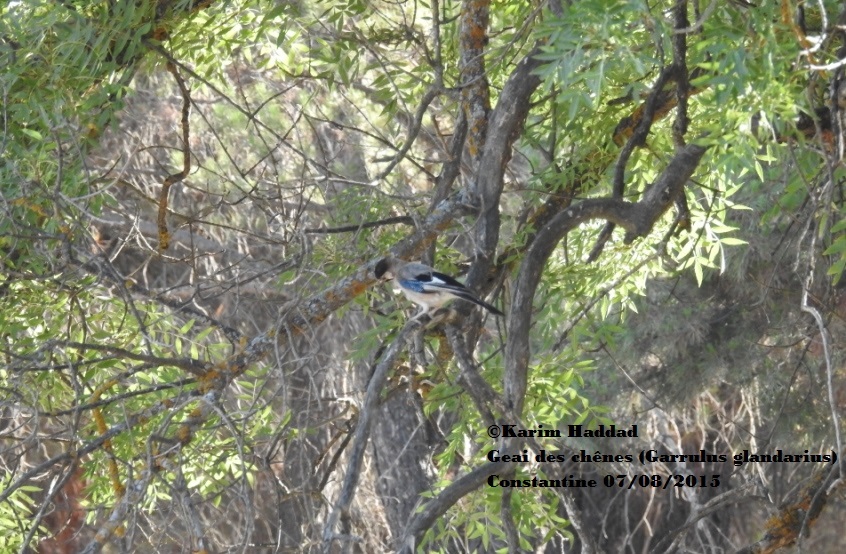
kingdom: Animalia
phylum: Chordata
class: Aves
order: Passeriformes
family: Corvidae
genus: Garrulus
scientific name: Garrulus glandarius
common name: Eurasian jay
